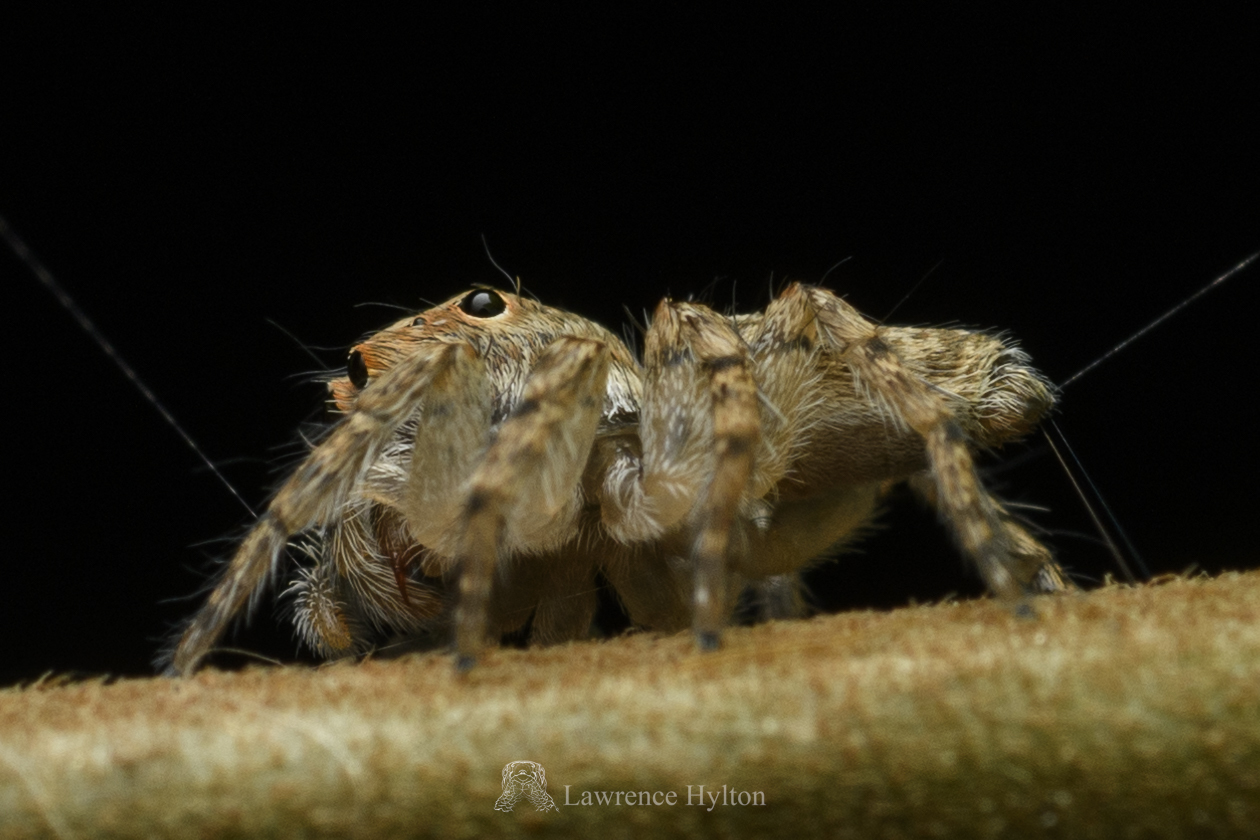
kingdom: Animalia
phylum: Arthropoda
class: Arachnida
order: Araneae
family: Salticidae
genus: Cytaea
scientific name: Cytaea maoming
